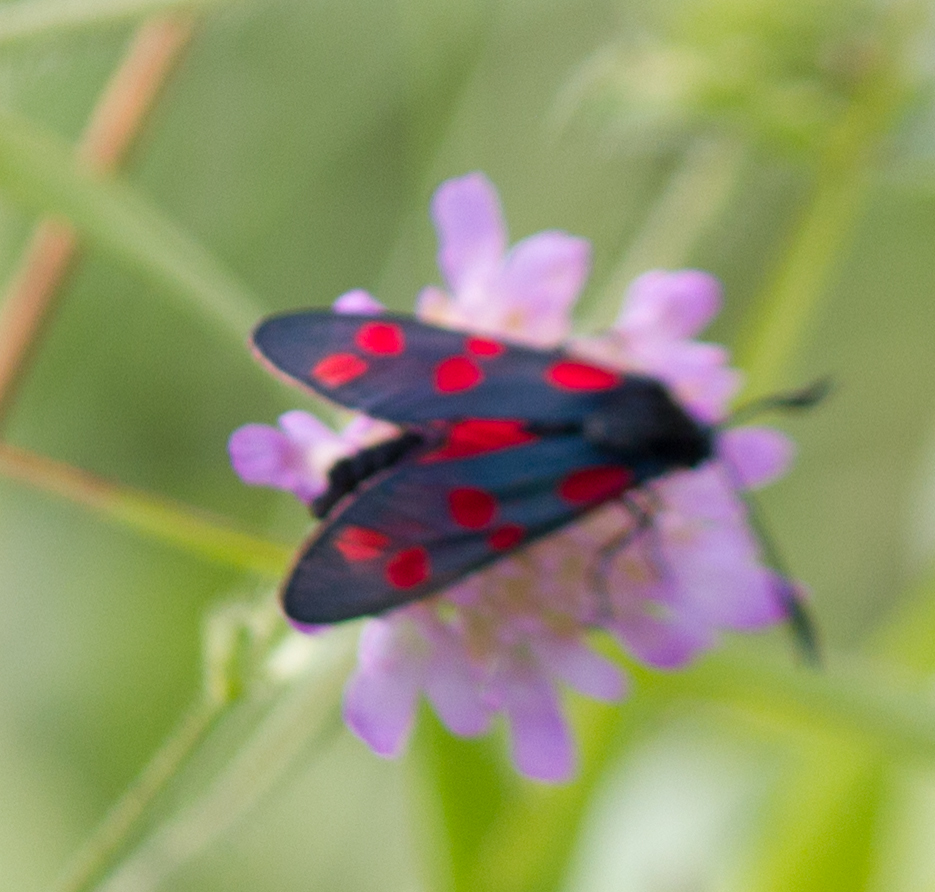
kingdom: Animalia
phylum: Arthropoda
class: Insecta
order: Lepidoptera
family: Zygaenidae
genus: Zygaena
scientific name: Zygaena filipendulae
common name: Six-spot burnet
